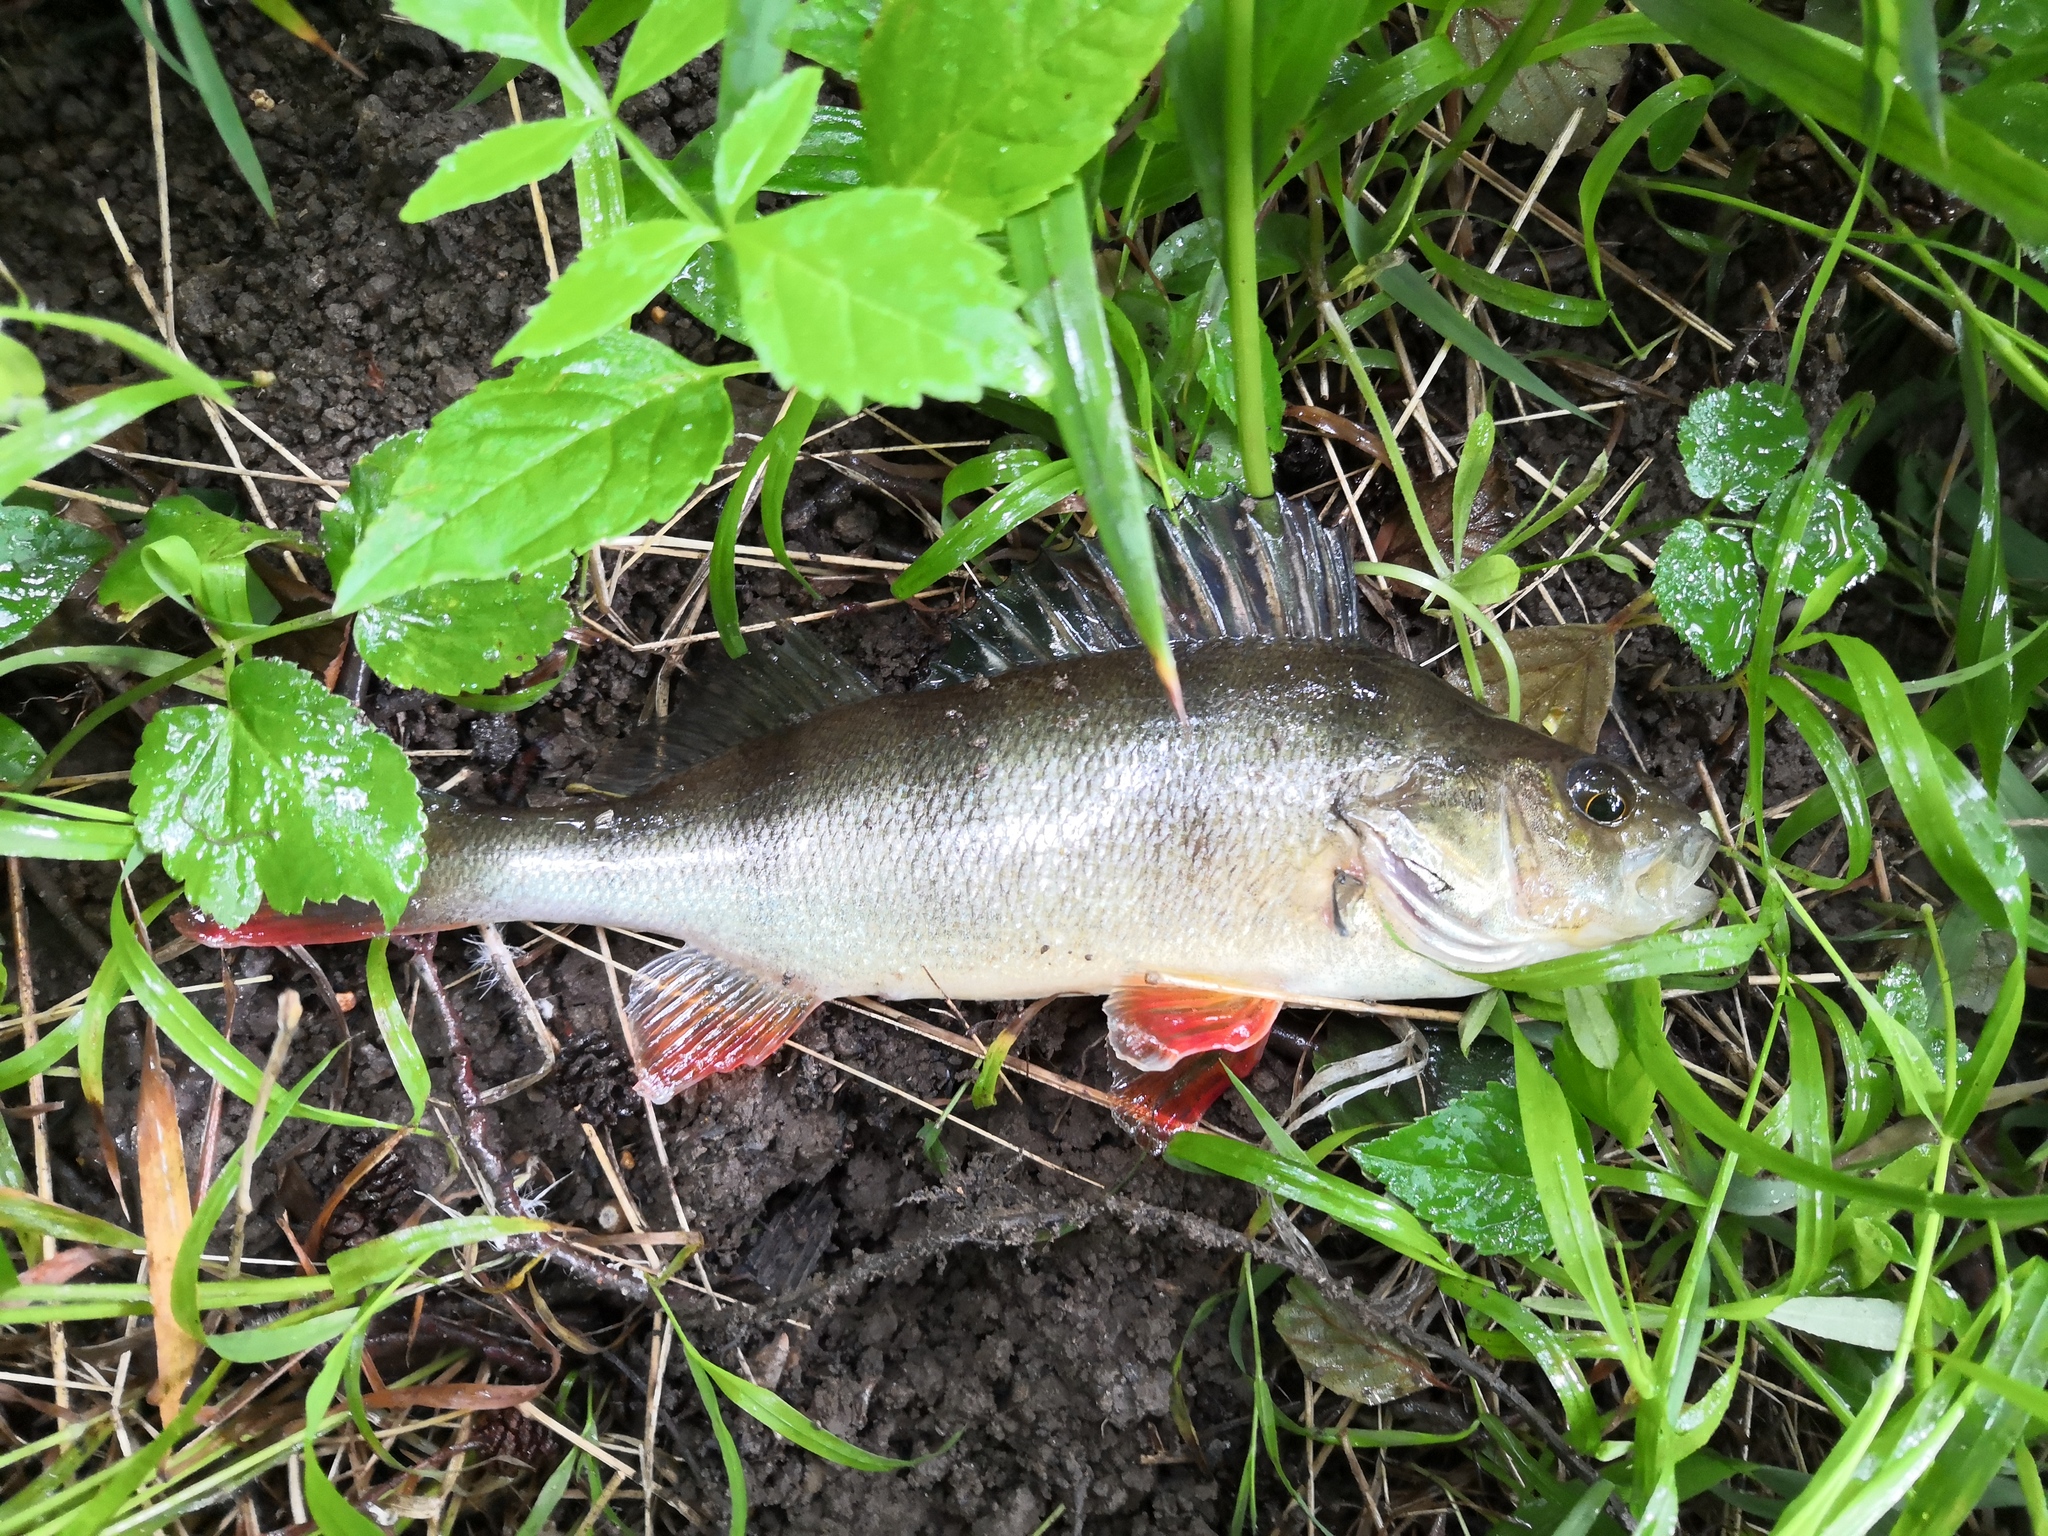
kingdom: Animalia
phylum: Chordata
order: Perciformes
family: Percidae
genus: Perca
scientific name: Perca fluviatilis
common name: Perch
